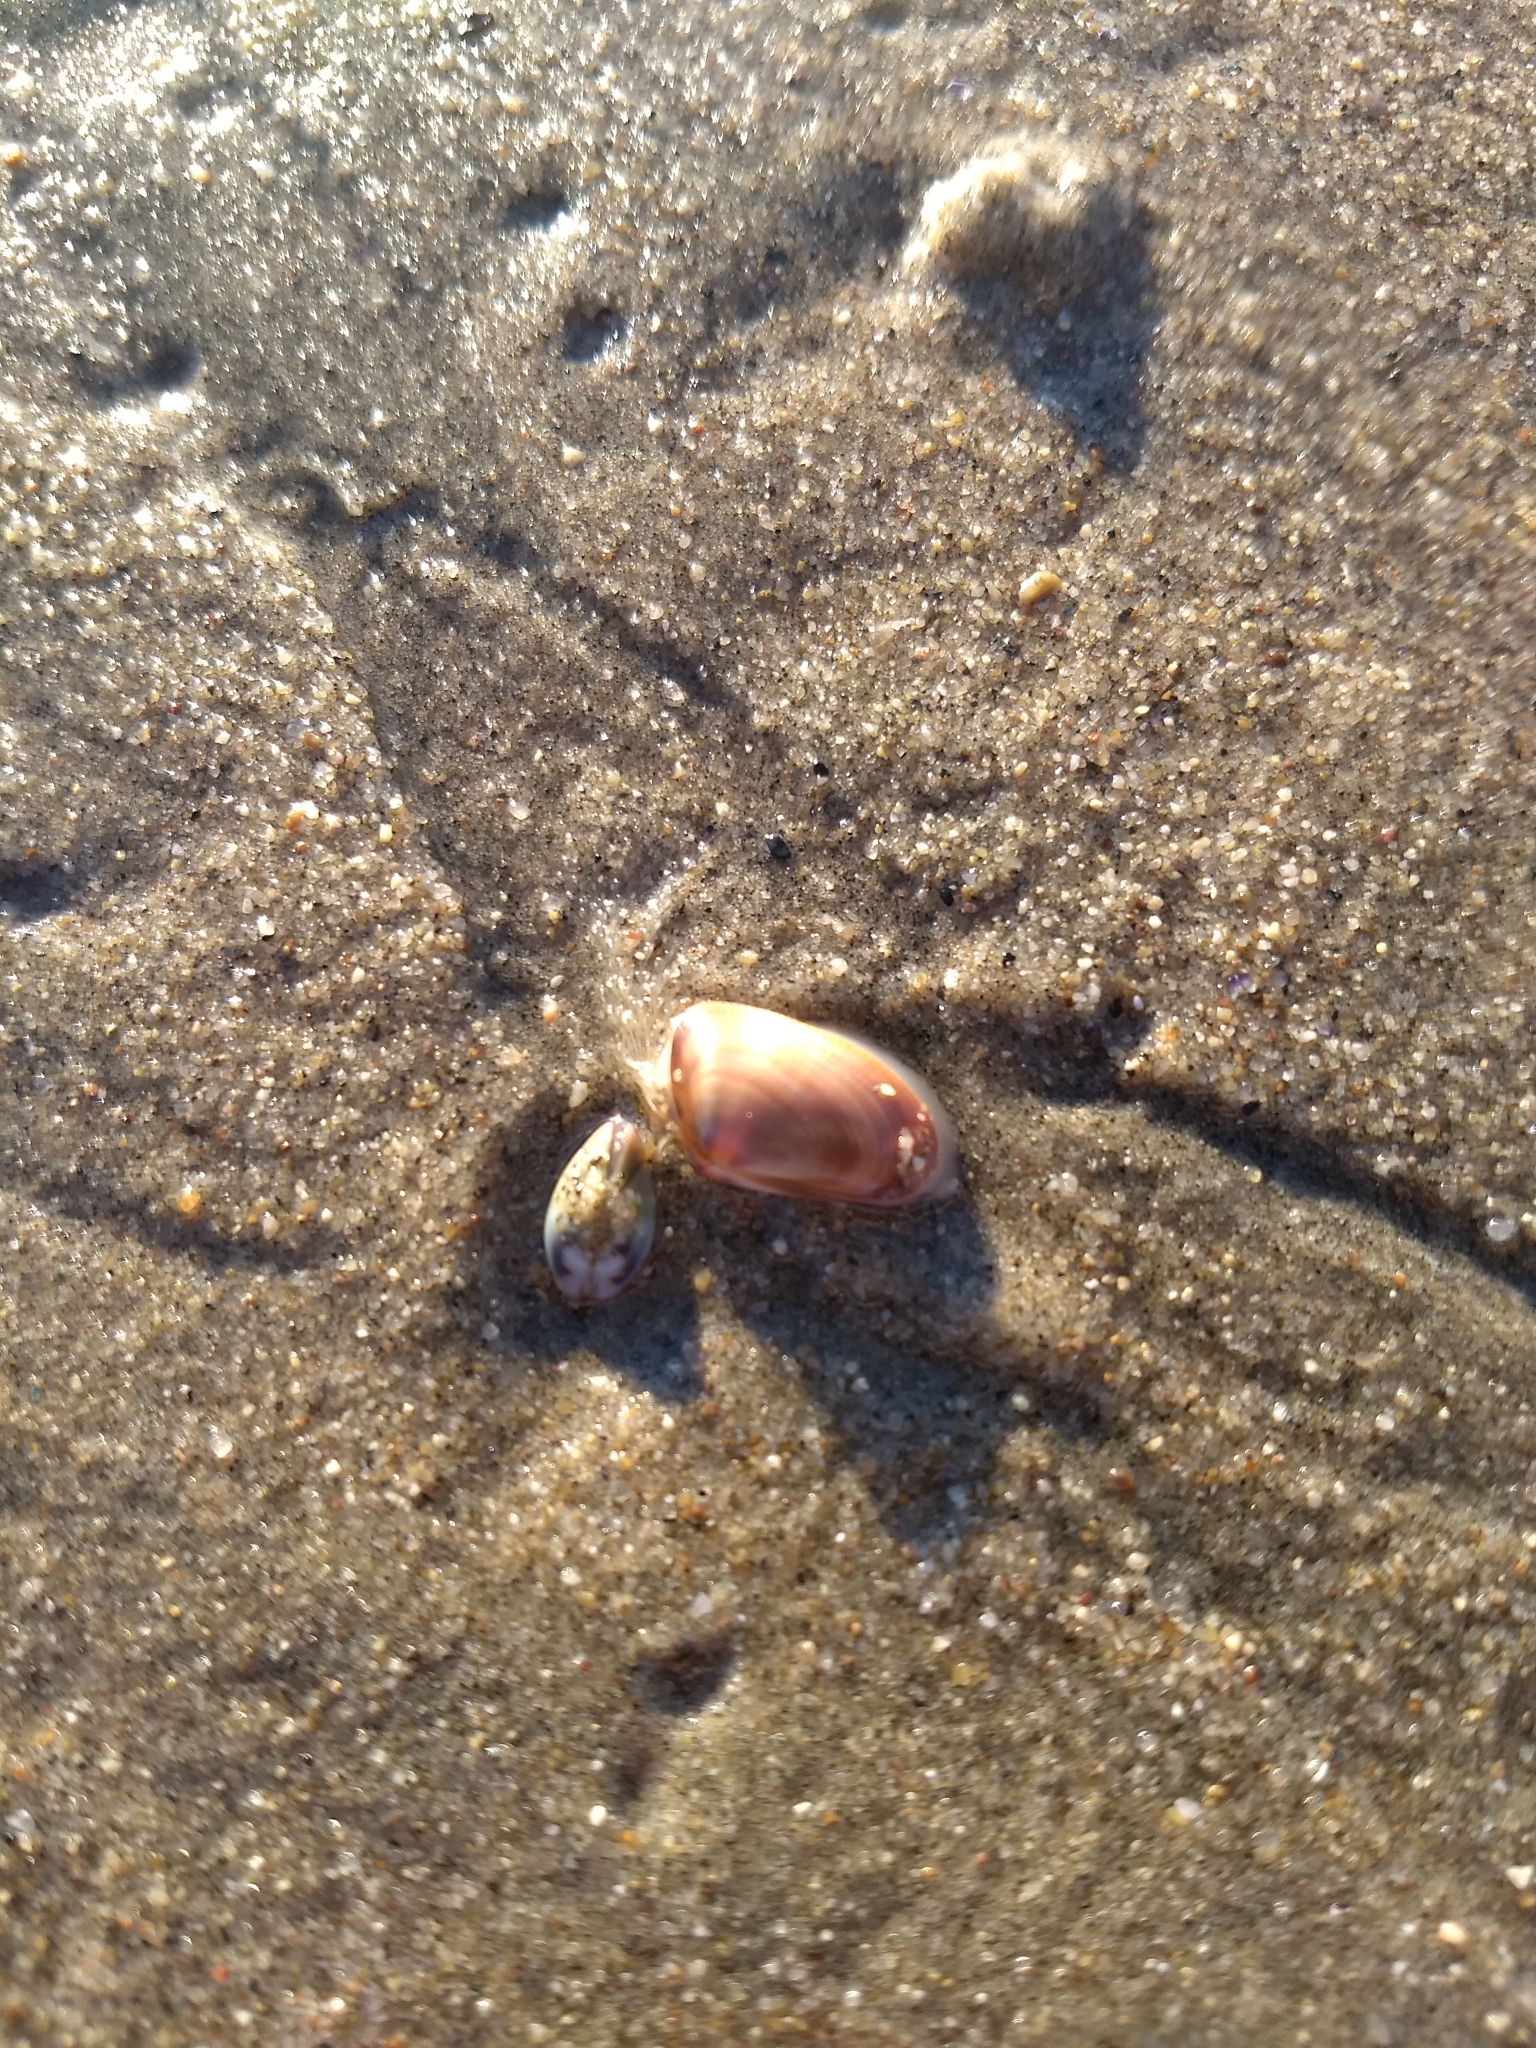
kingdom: Animalia
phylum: Mollusca
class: Bivalvia
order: Cardiida
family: Donacidae
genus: Donax
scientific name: Donax gouldii
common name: Gould beanclam
